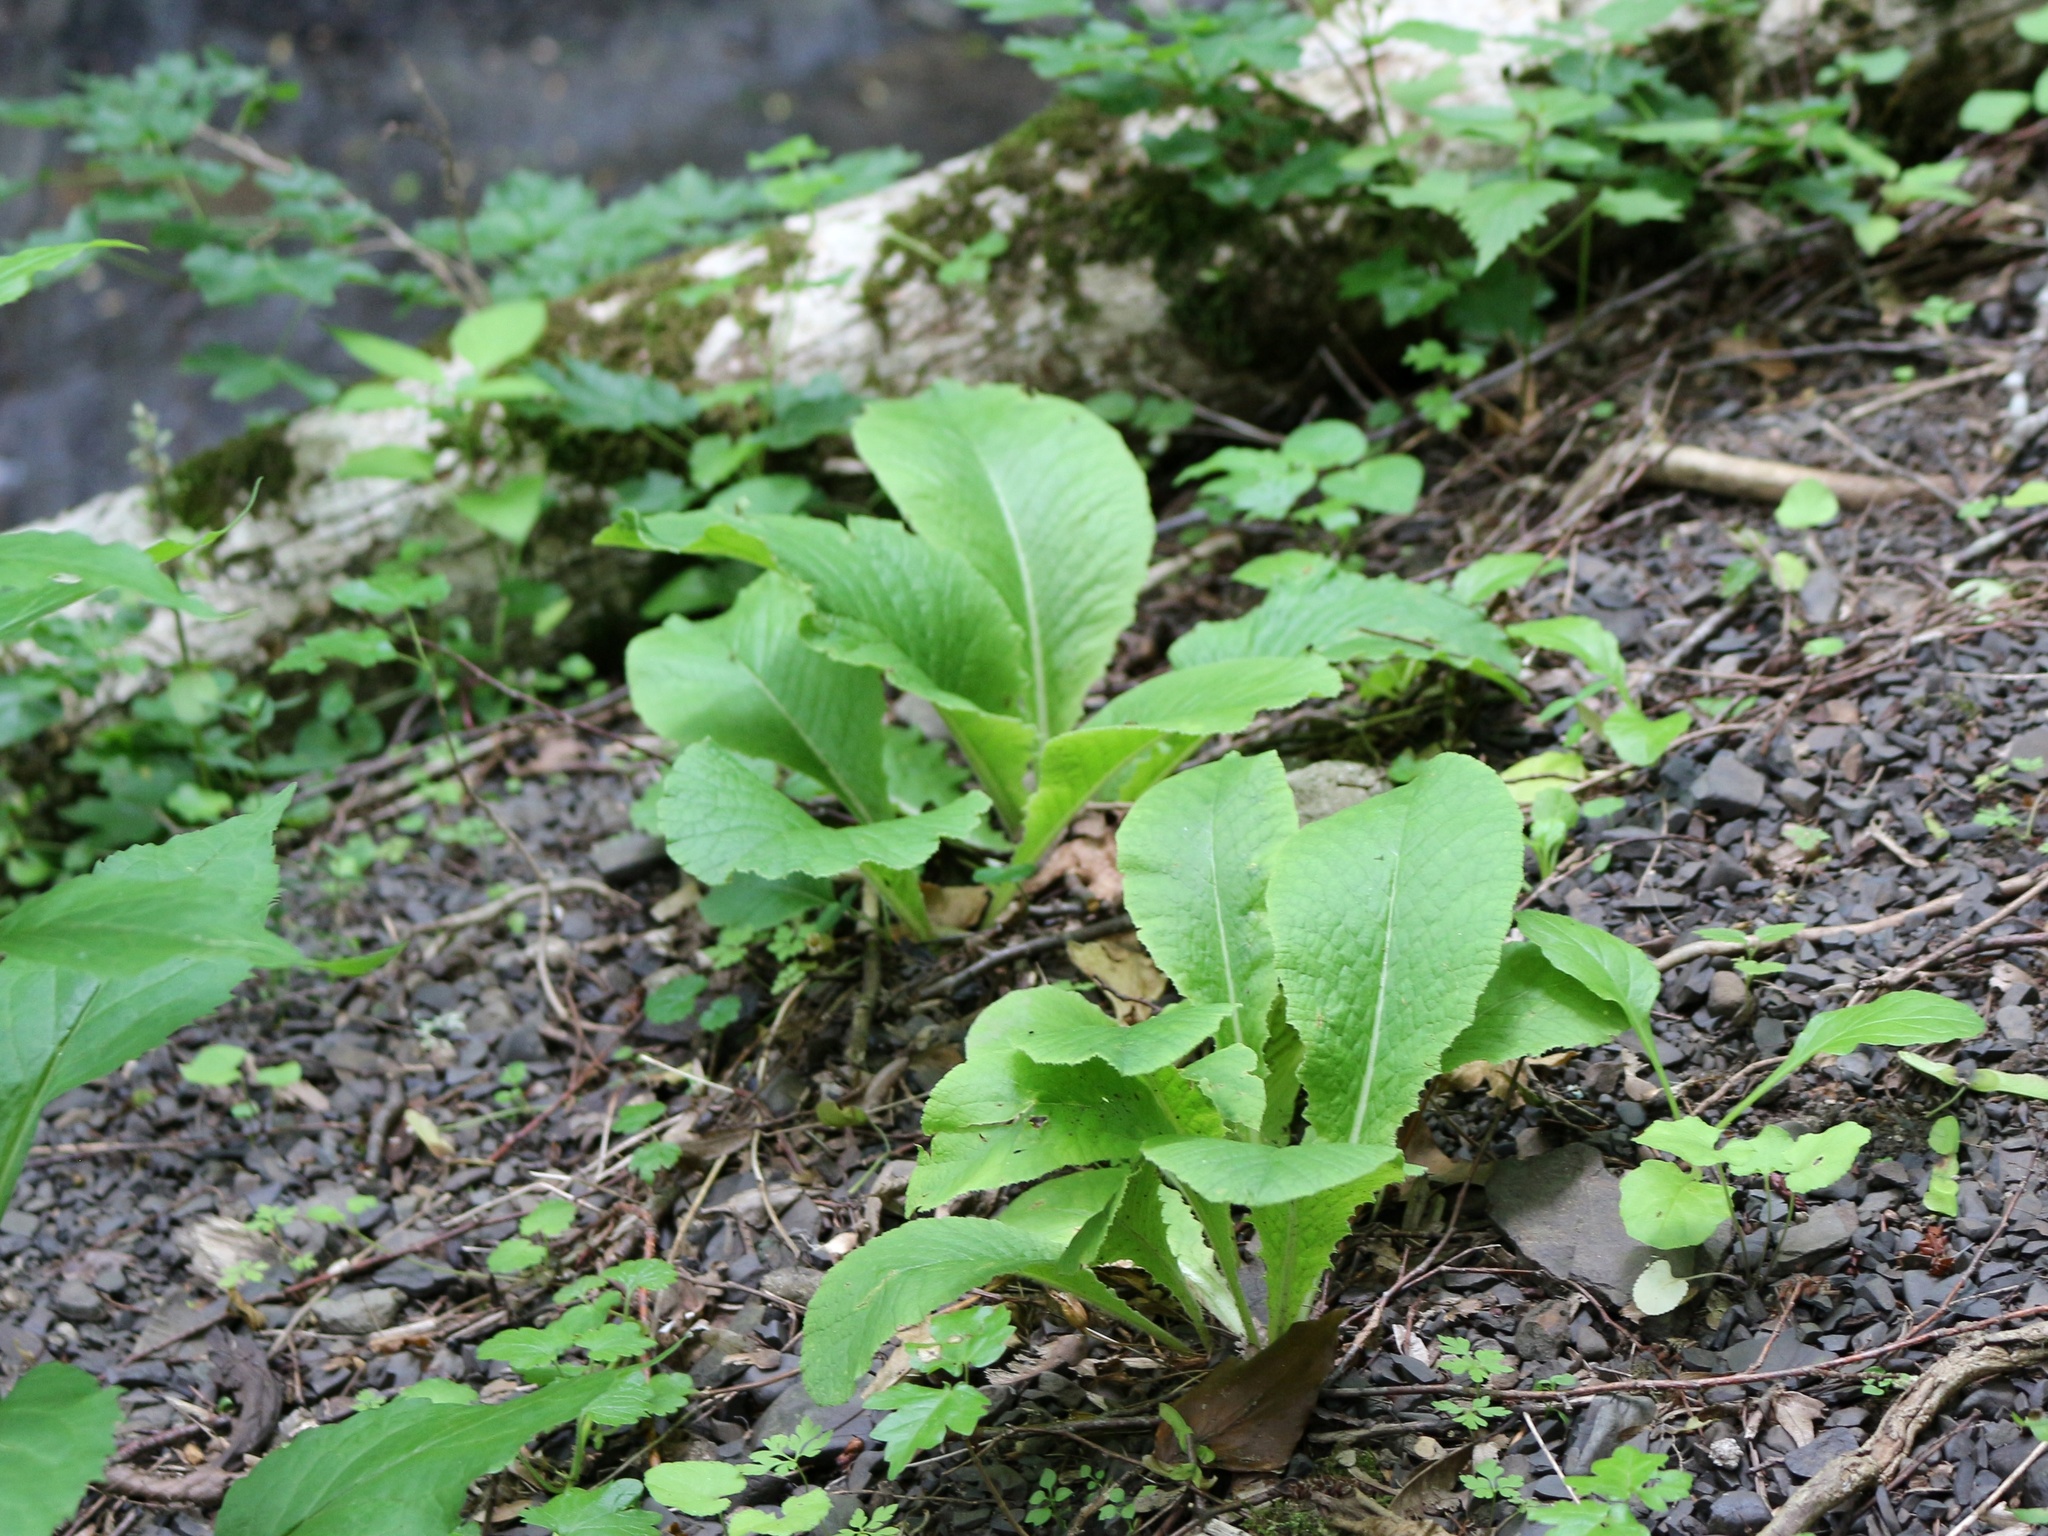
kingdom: Plantae
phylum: Tracheophyta
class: Magnoliopsida
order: Ericales
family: Primulaceae
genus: Primula
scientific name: Primula vulgaris
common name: Primrose
